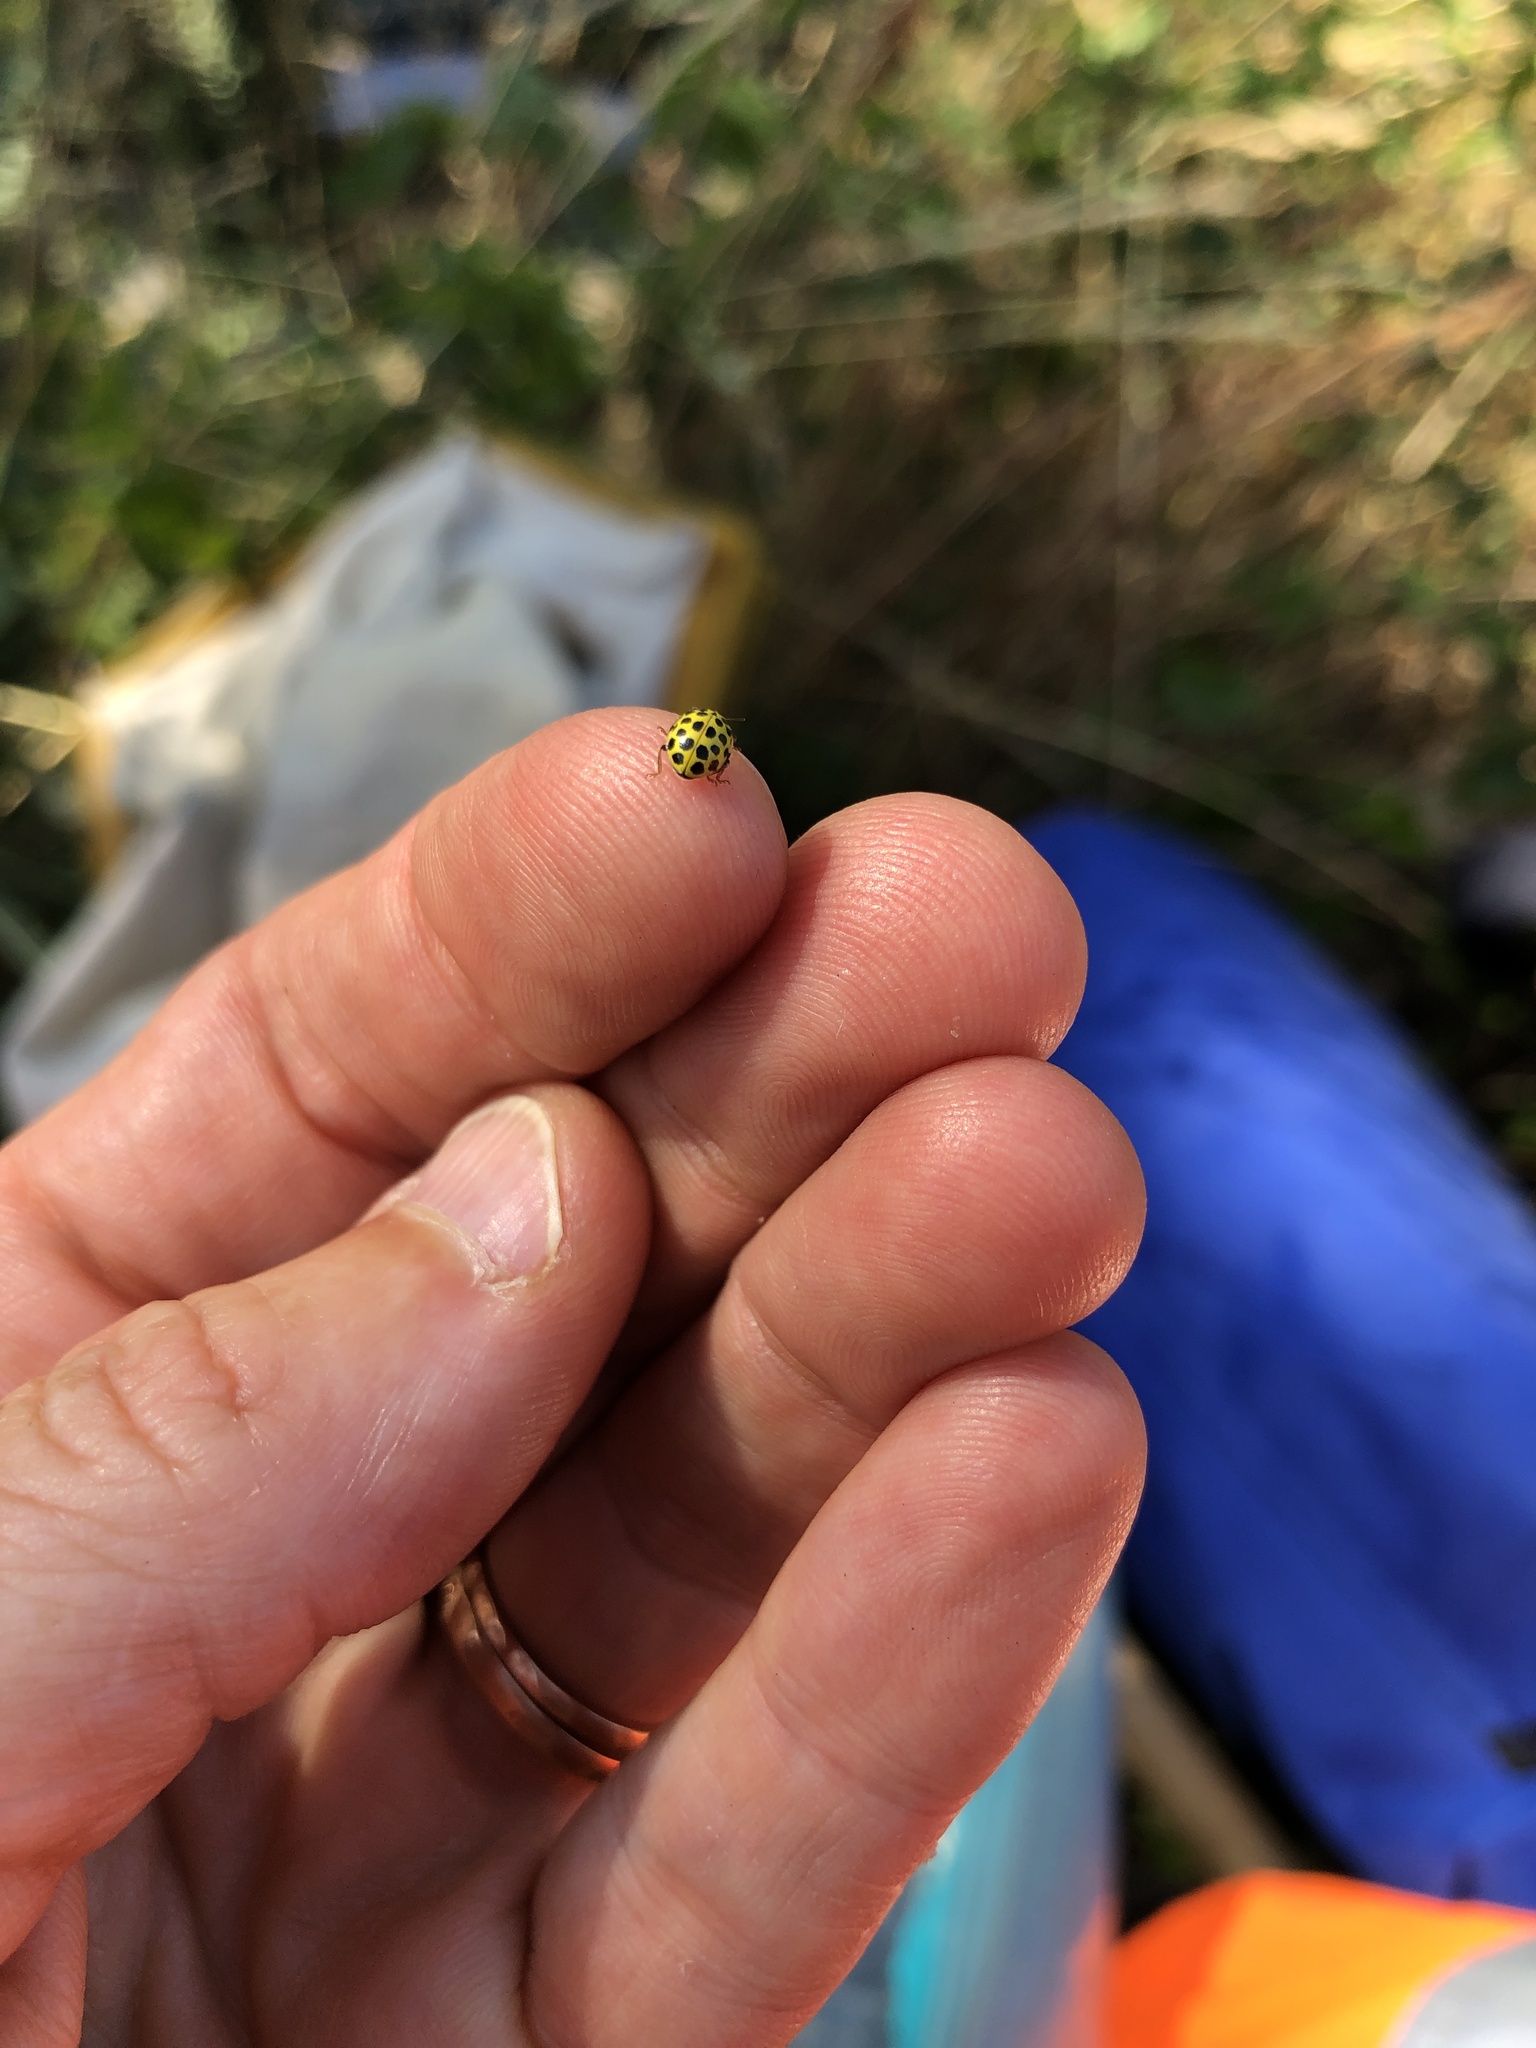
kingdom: Animalia
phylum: Arthropoda
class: Insecta
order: Coleoptera
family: Coccinellidae
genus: Psyllobora
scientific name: Psyllobora vigintiduopunctata
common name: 22-spot ladybird
